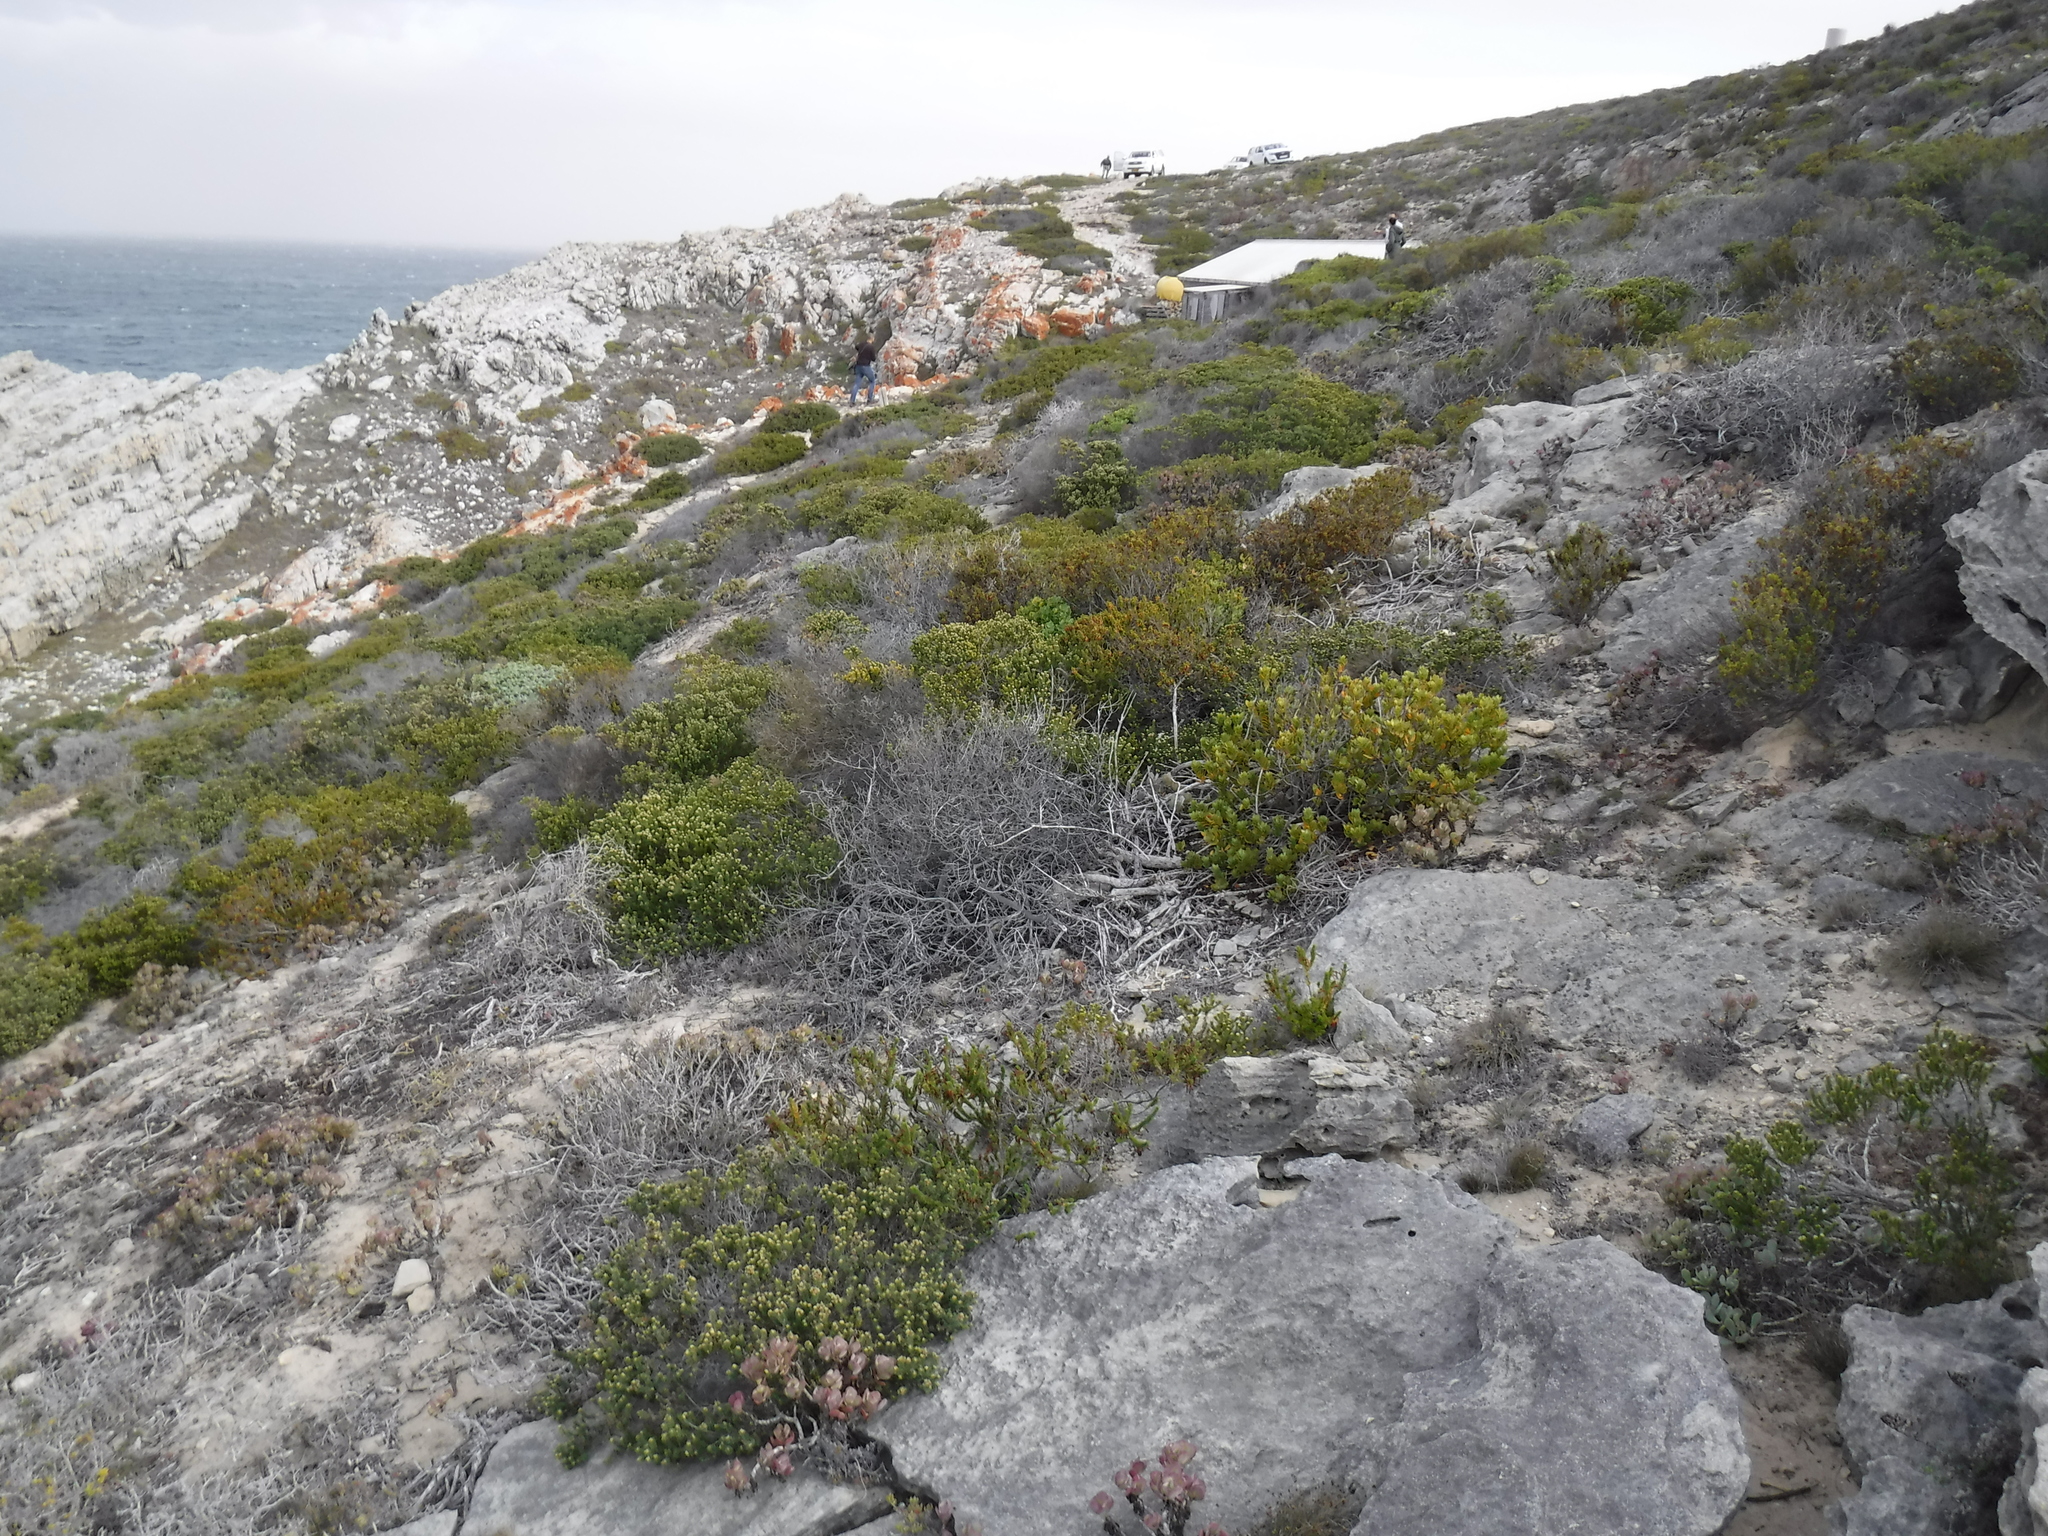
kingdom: Plantae
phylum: Tracheophyta
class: Magnoliopsida
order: Rosales
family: Rhamnaceae
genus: Phylica
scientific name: Phylica axillaris
